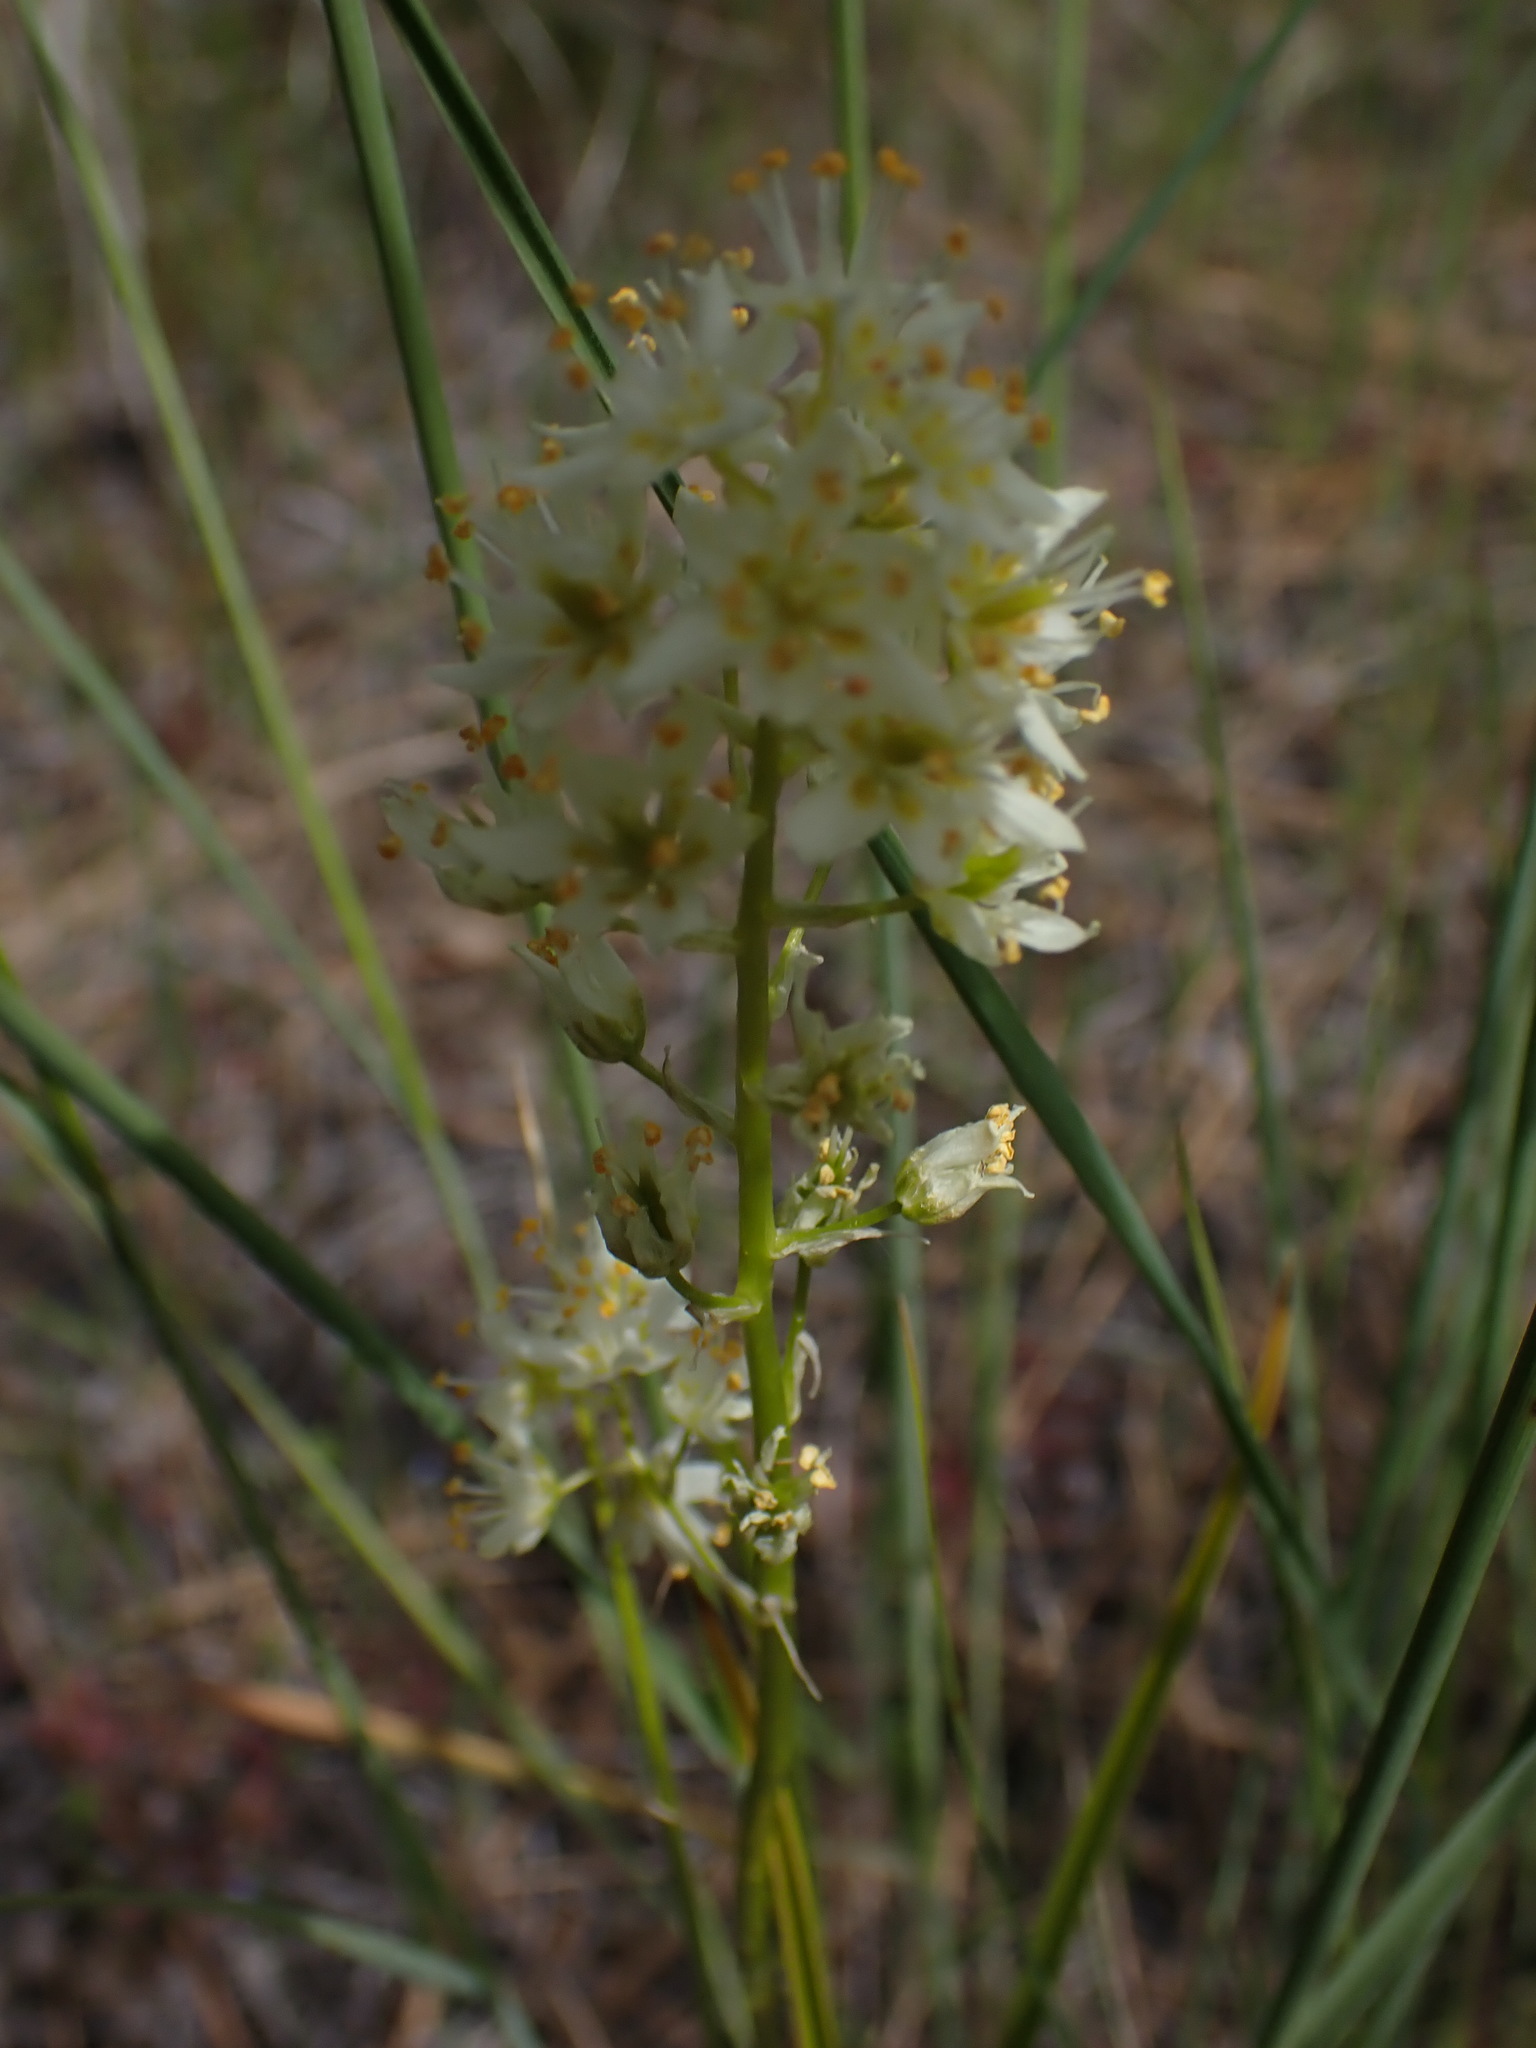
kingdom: Plantae
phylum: Tracheophyta
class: Liliopsida
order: Liliales
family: Melanthiaceae
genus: Toxicoscordion
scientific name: Toxicoscordion venenosum
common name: Meadow death camas
